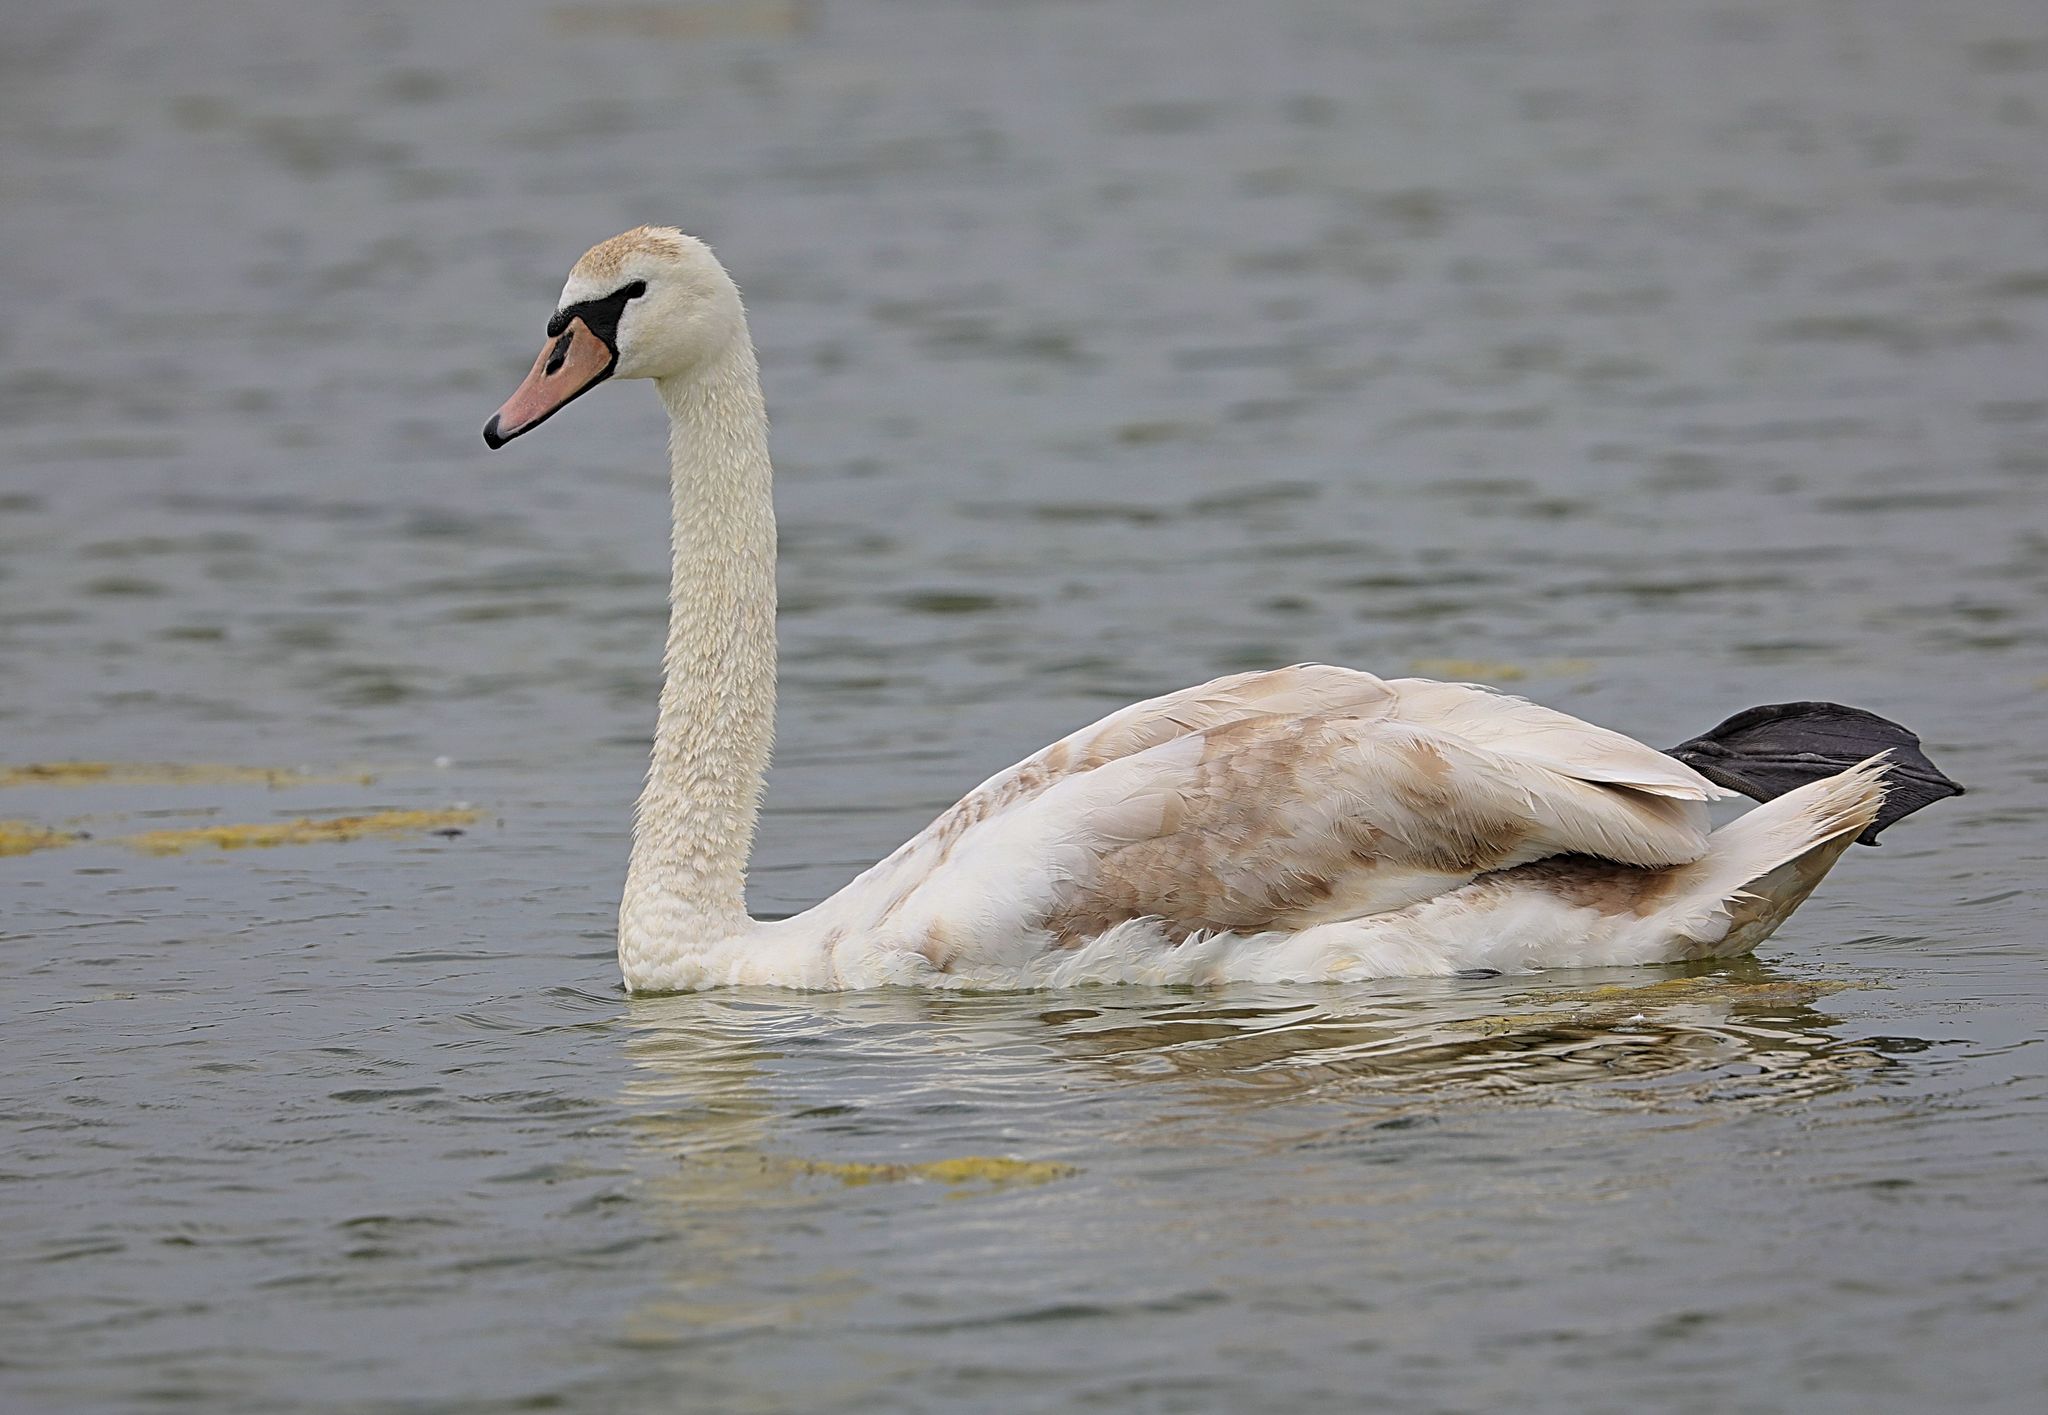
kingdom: Animalia
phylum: Chordata
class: Aves
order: Anseriformes
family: Anatidae
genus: Cygnus
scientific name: Cygnus olor
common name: Mute swan
